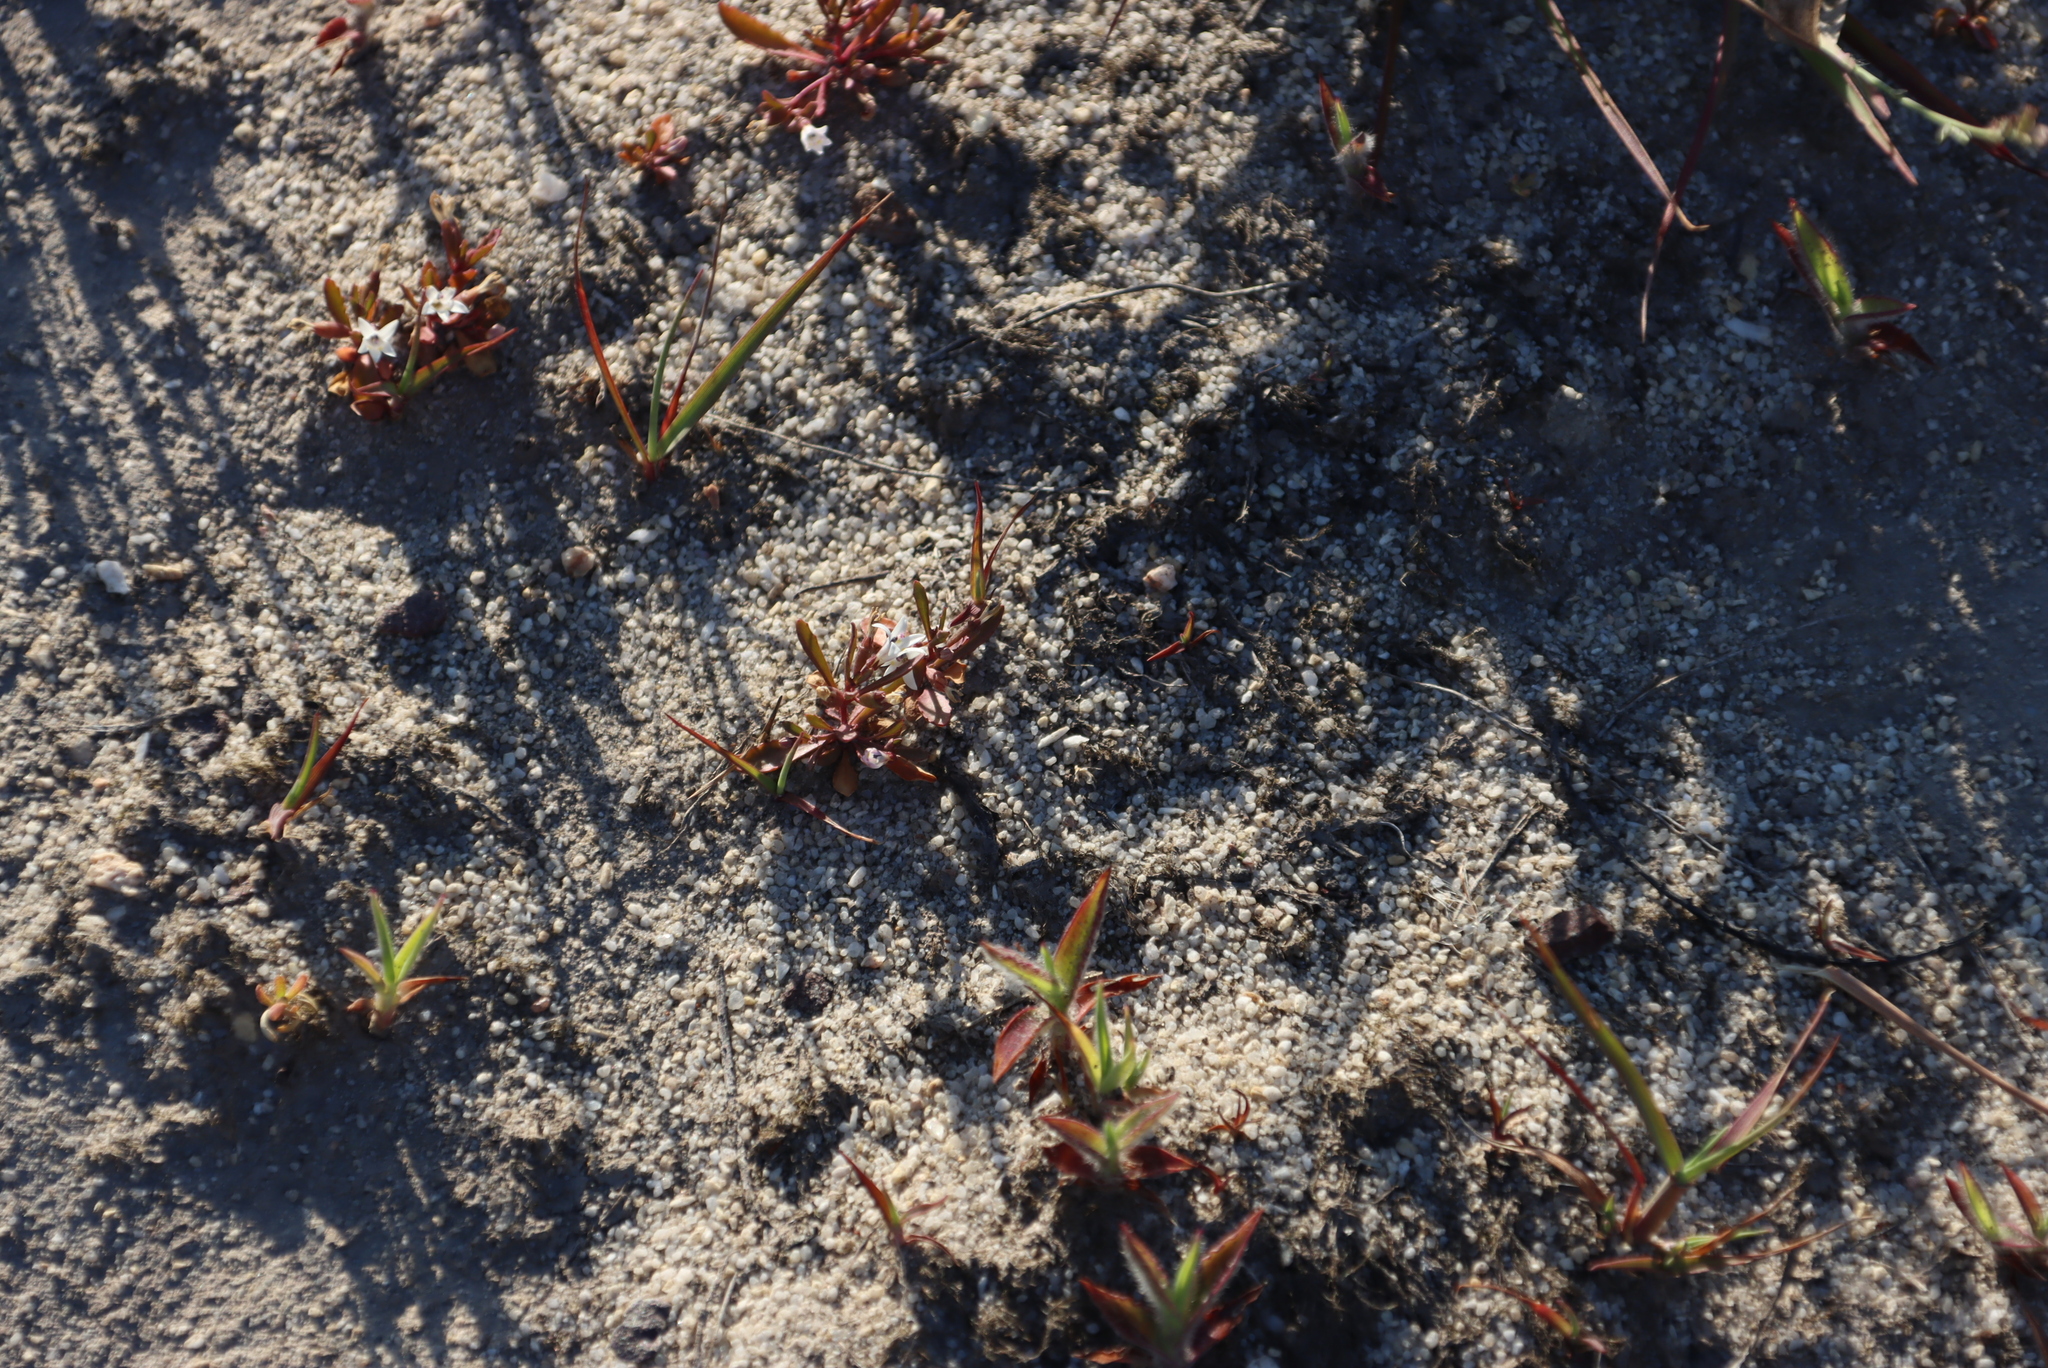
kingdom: Plantae
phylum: Tracheophyta
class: Magnoliopsida
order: Asterales
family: Campanulaceae
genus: Wimmerella
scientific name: Wimmerella secunda
